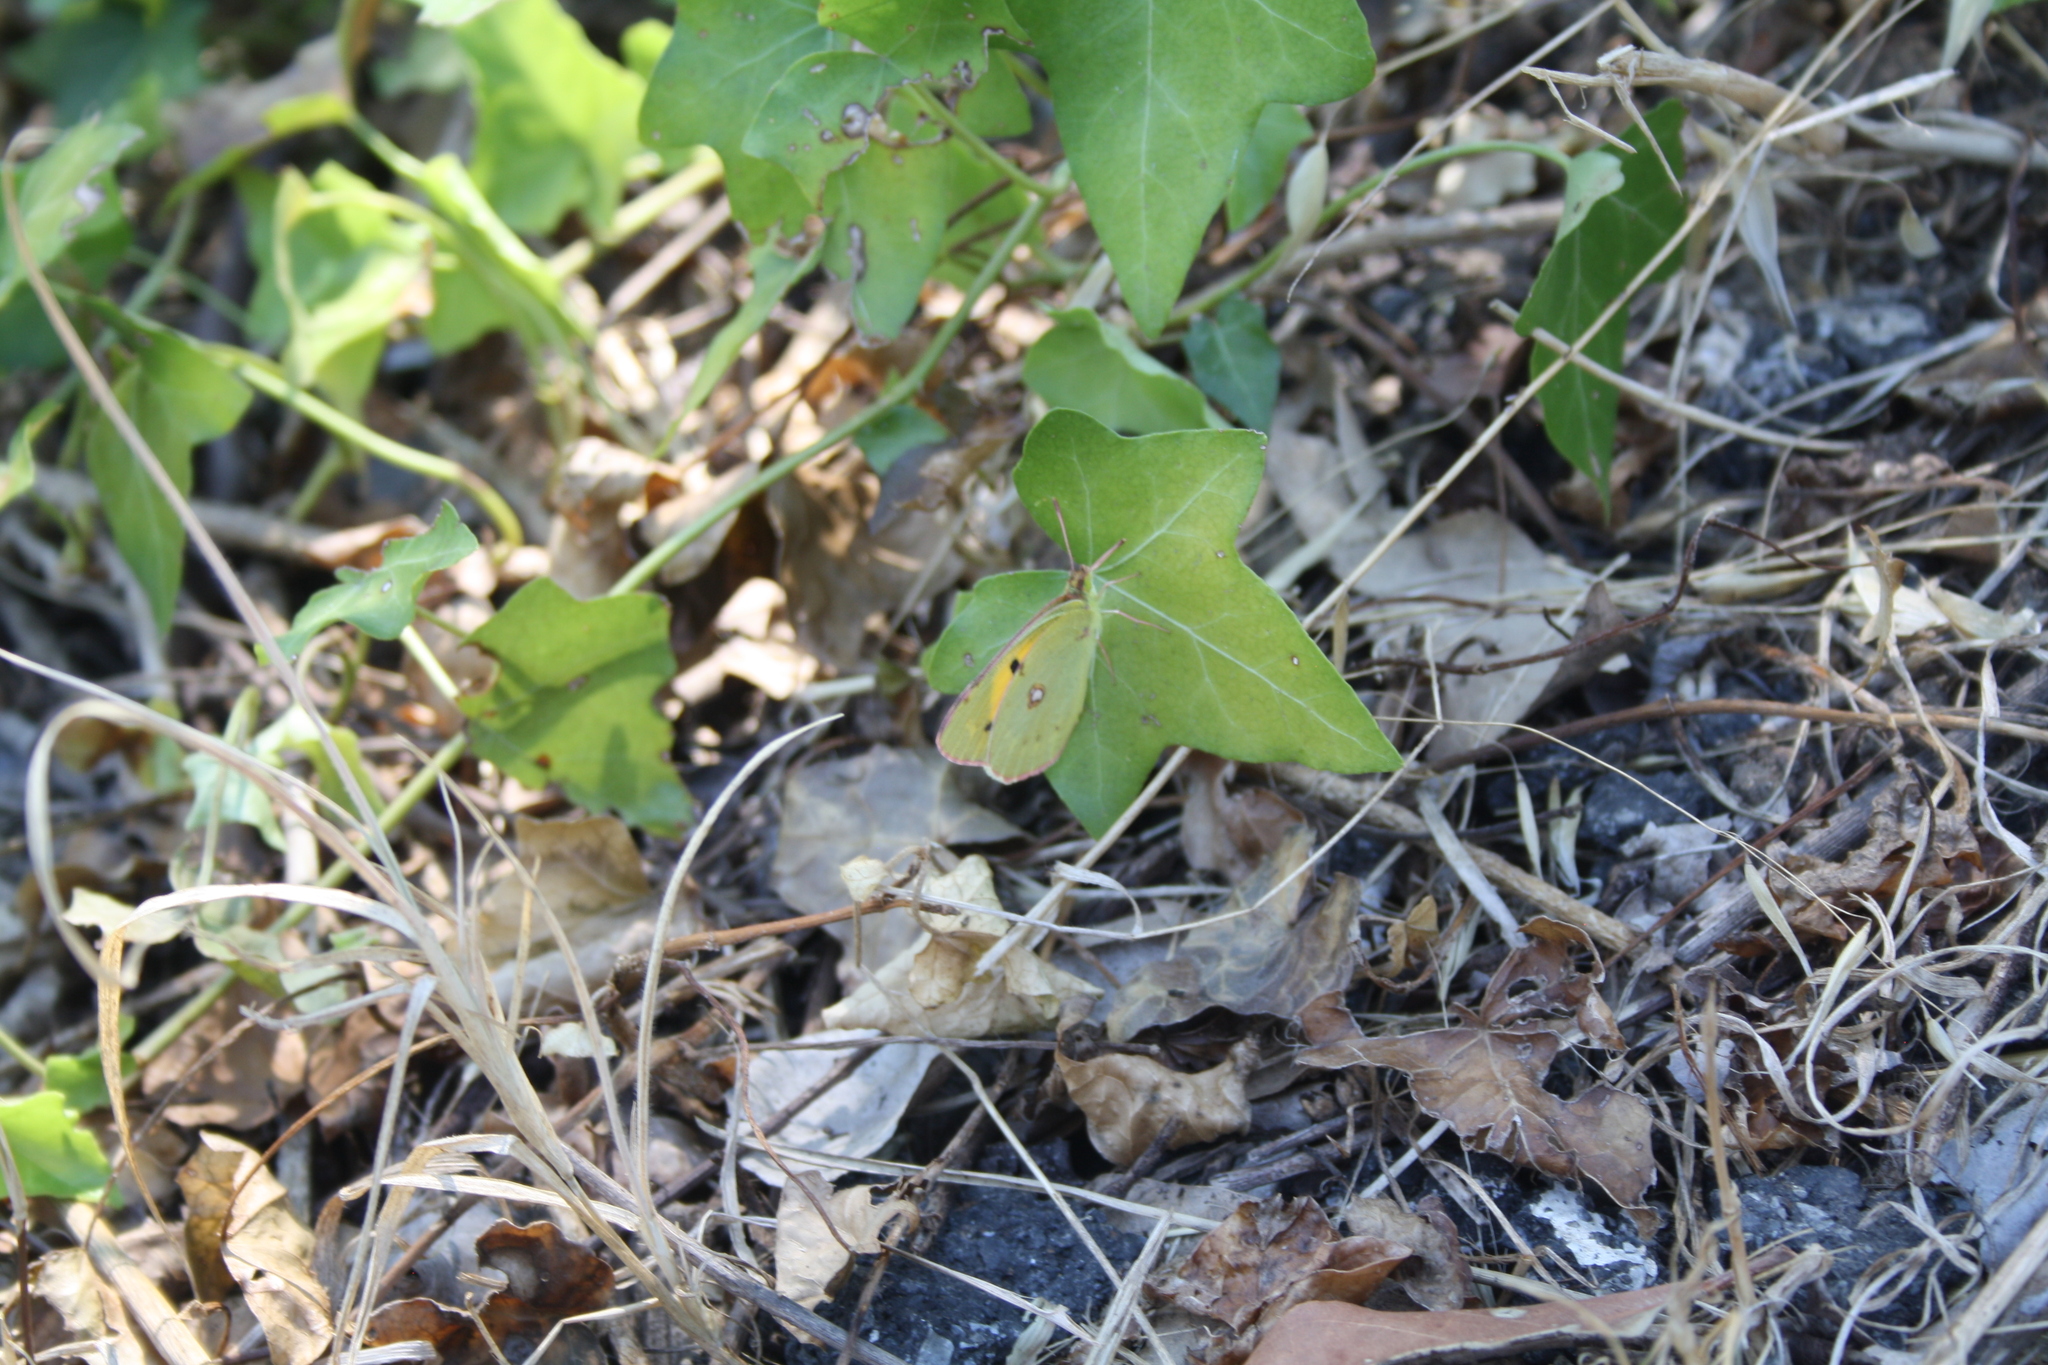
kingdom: Animalia
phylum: Arthropoda
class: Insecta
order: Lepidoptera
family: Pieridae
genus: Colias
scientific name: Colias croceus
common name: Clouded yellow
